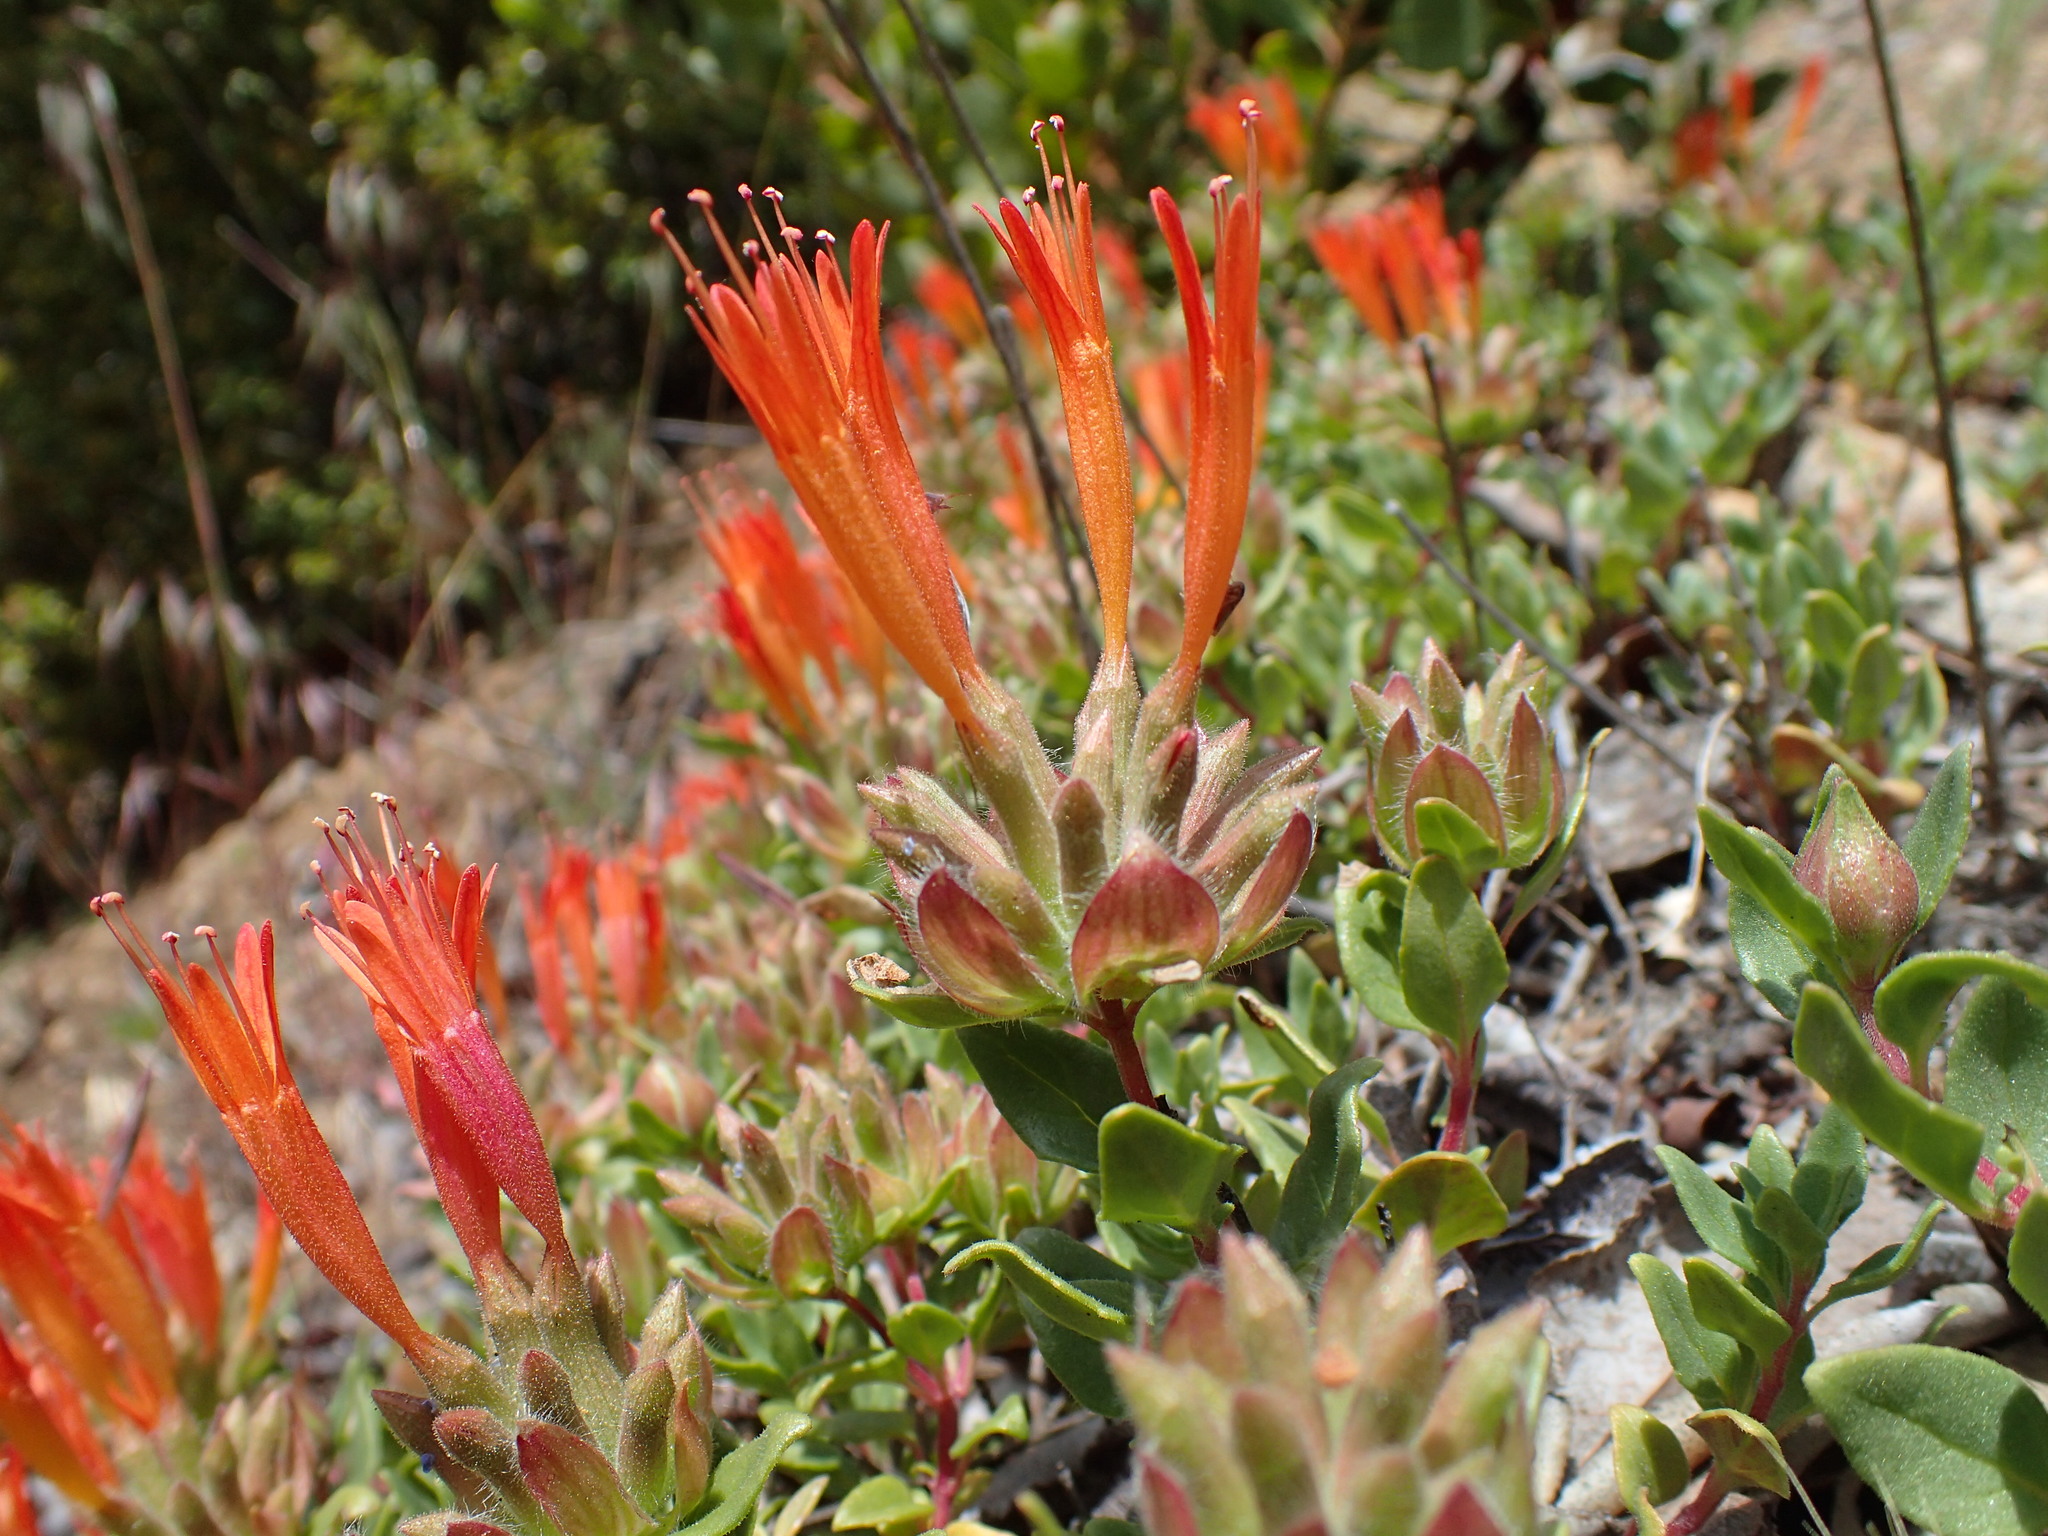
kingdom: Plantae
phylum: Tracheophyta
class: Magnoliopsida
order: Lamiales
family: Lamiaceae
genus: Monardella
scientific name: Monardella macrantha
